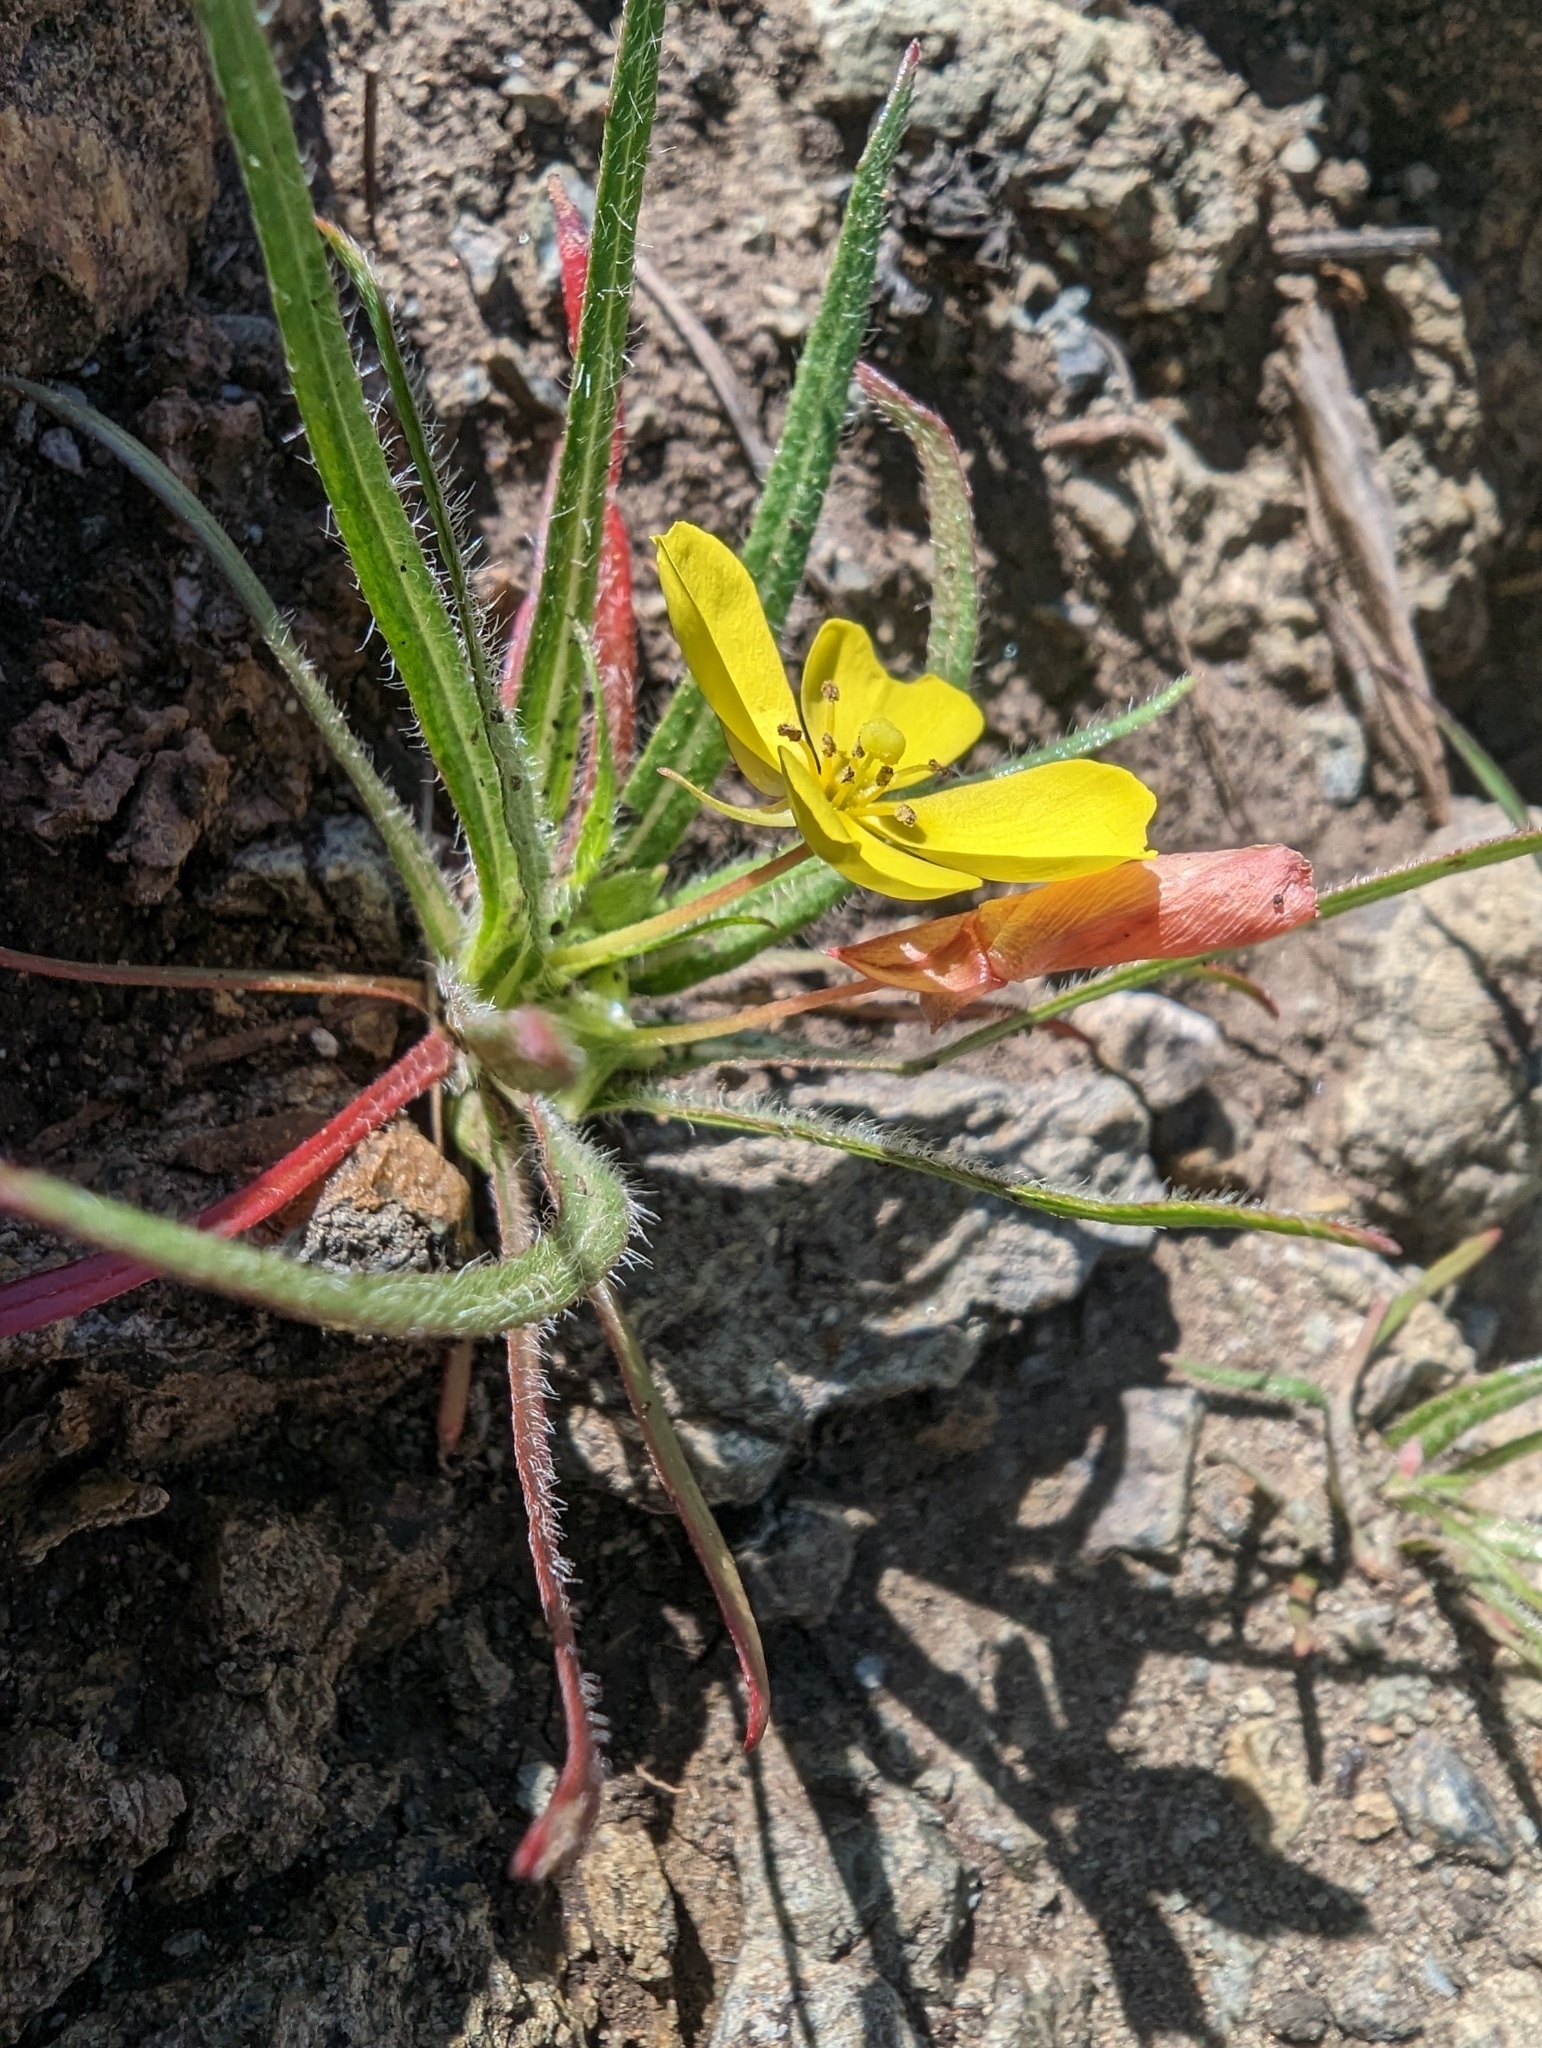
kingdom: Plantae
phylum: Tracheophyta
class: Magnoliopsida
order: Myrtales
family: Onagraceae
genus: Tetrapteron
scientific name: Tetrapteron graciliflorum
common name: Hill suncup
